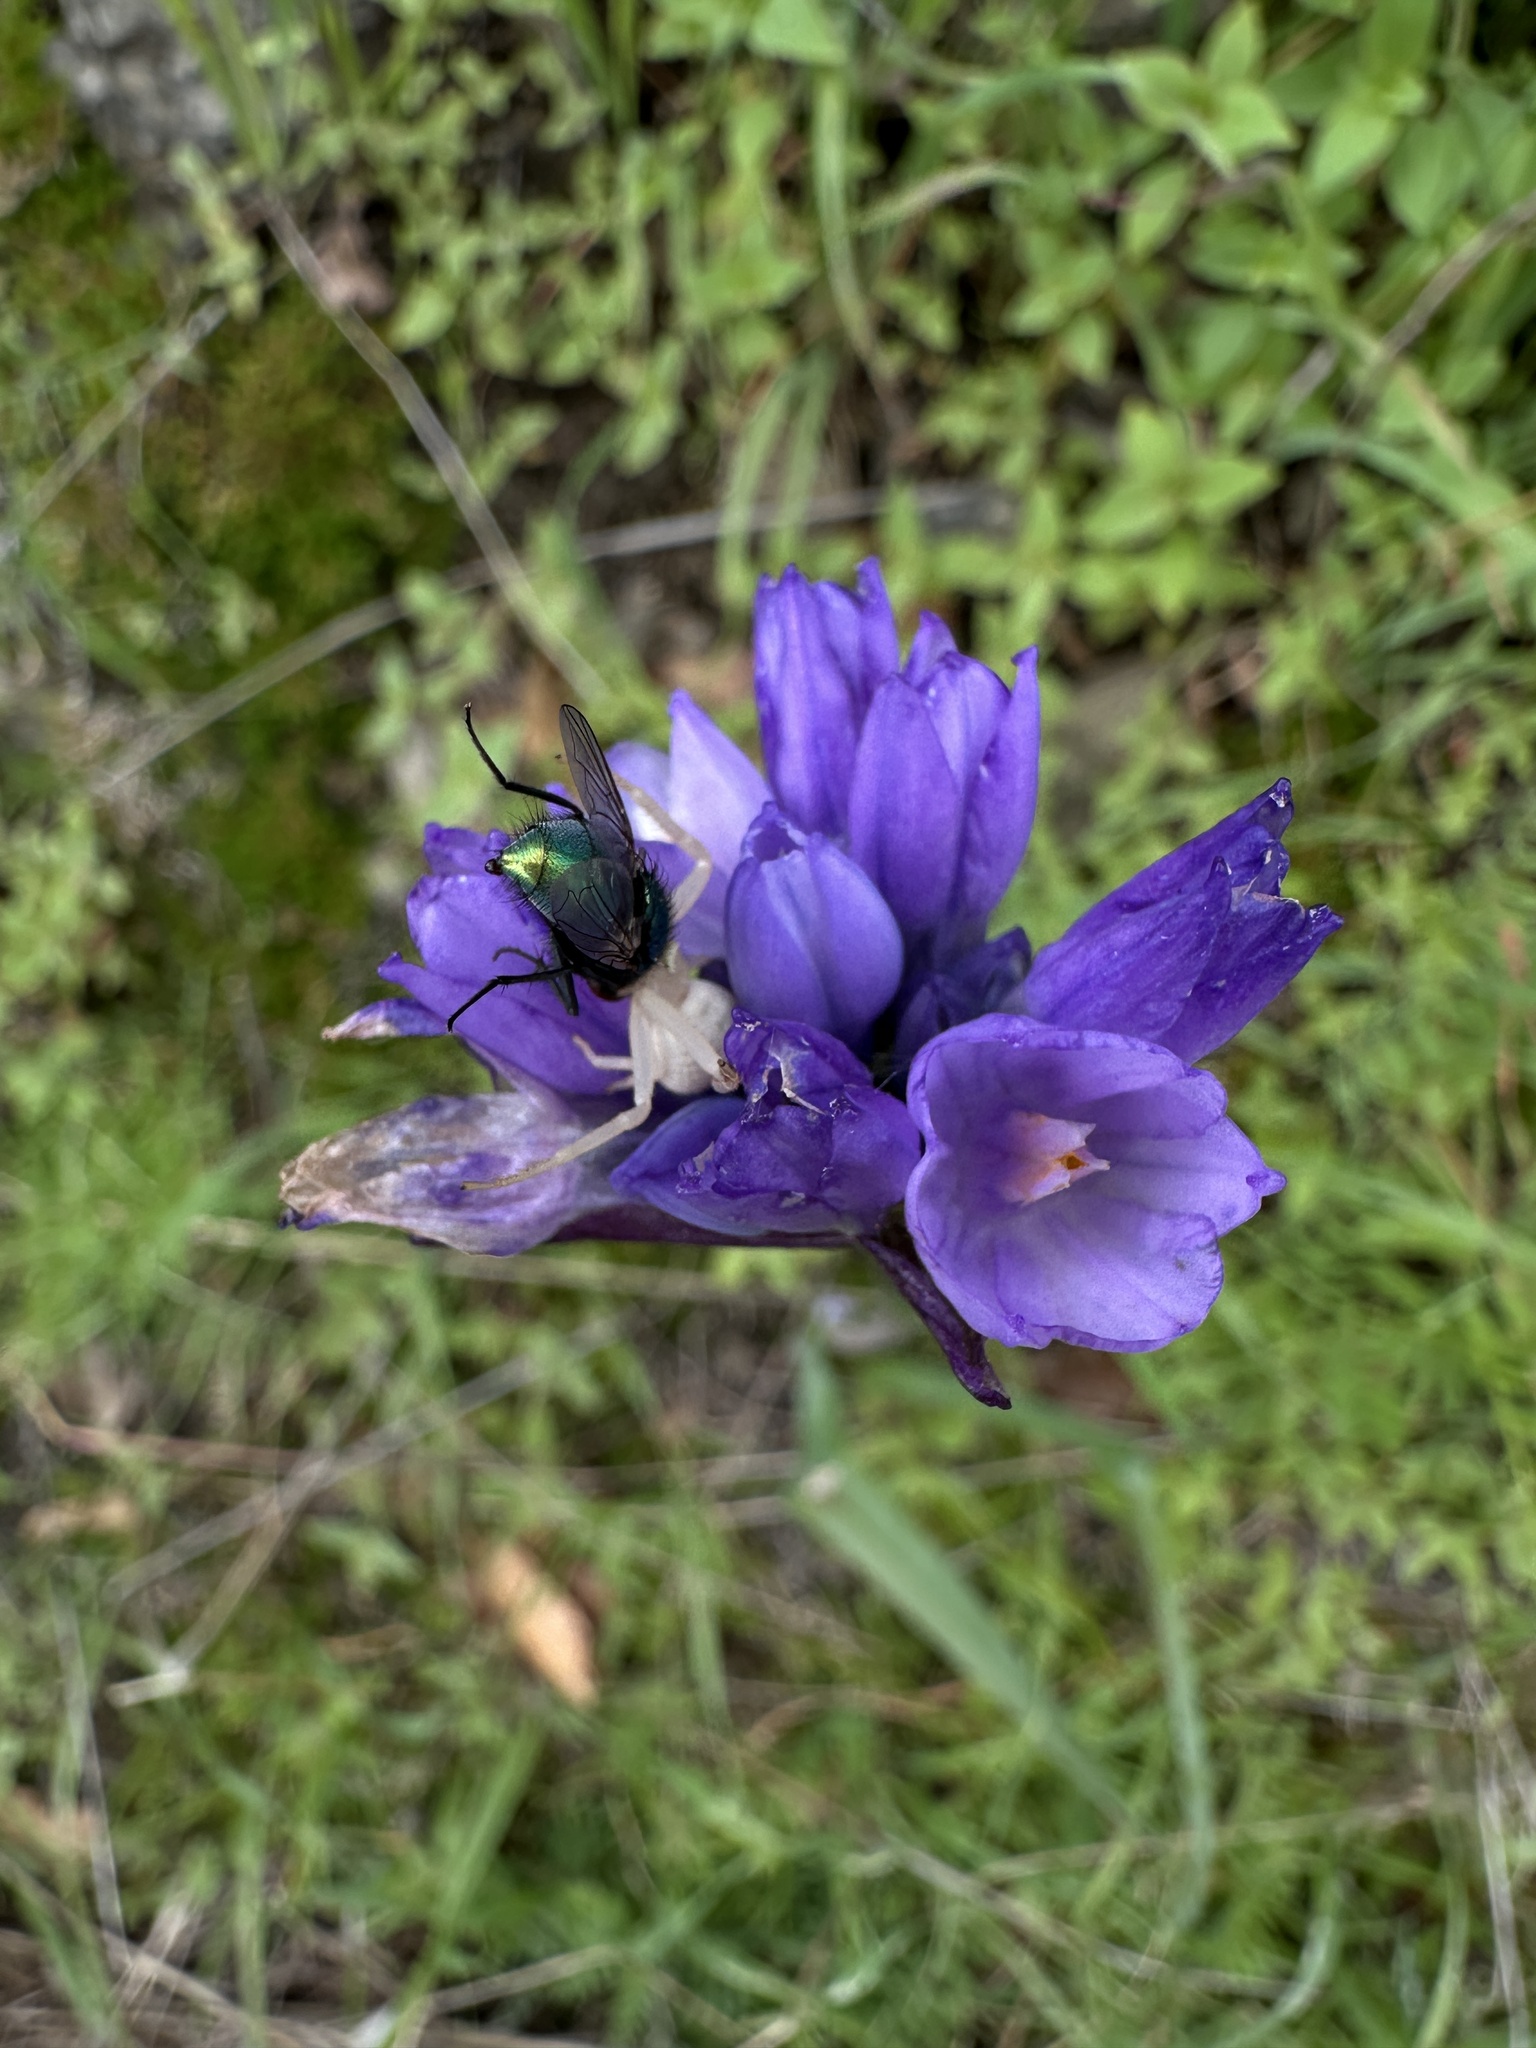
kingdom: Plantae
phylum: Tracheophyta
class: Liliopsida
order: Asparagales
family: Asparagaceae
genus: Dipterostemon
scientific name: Dipterostemon capitatus
